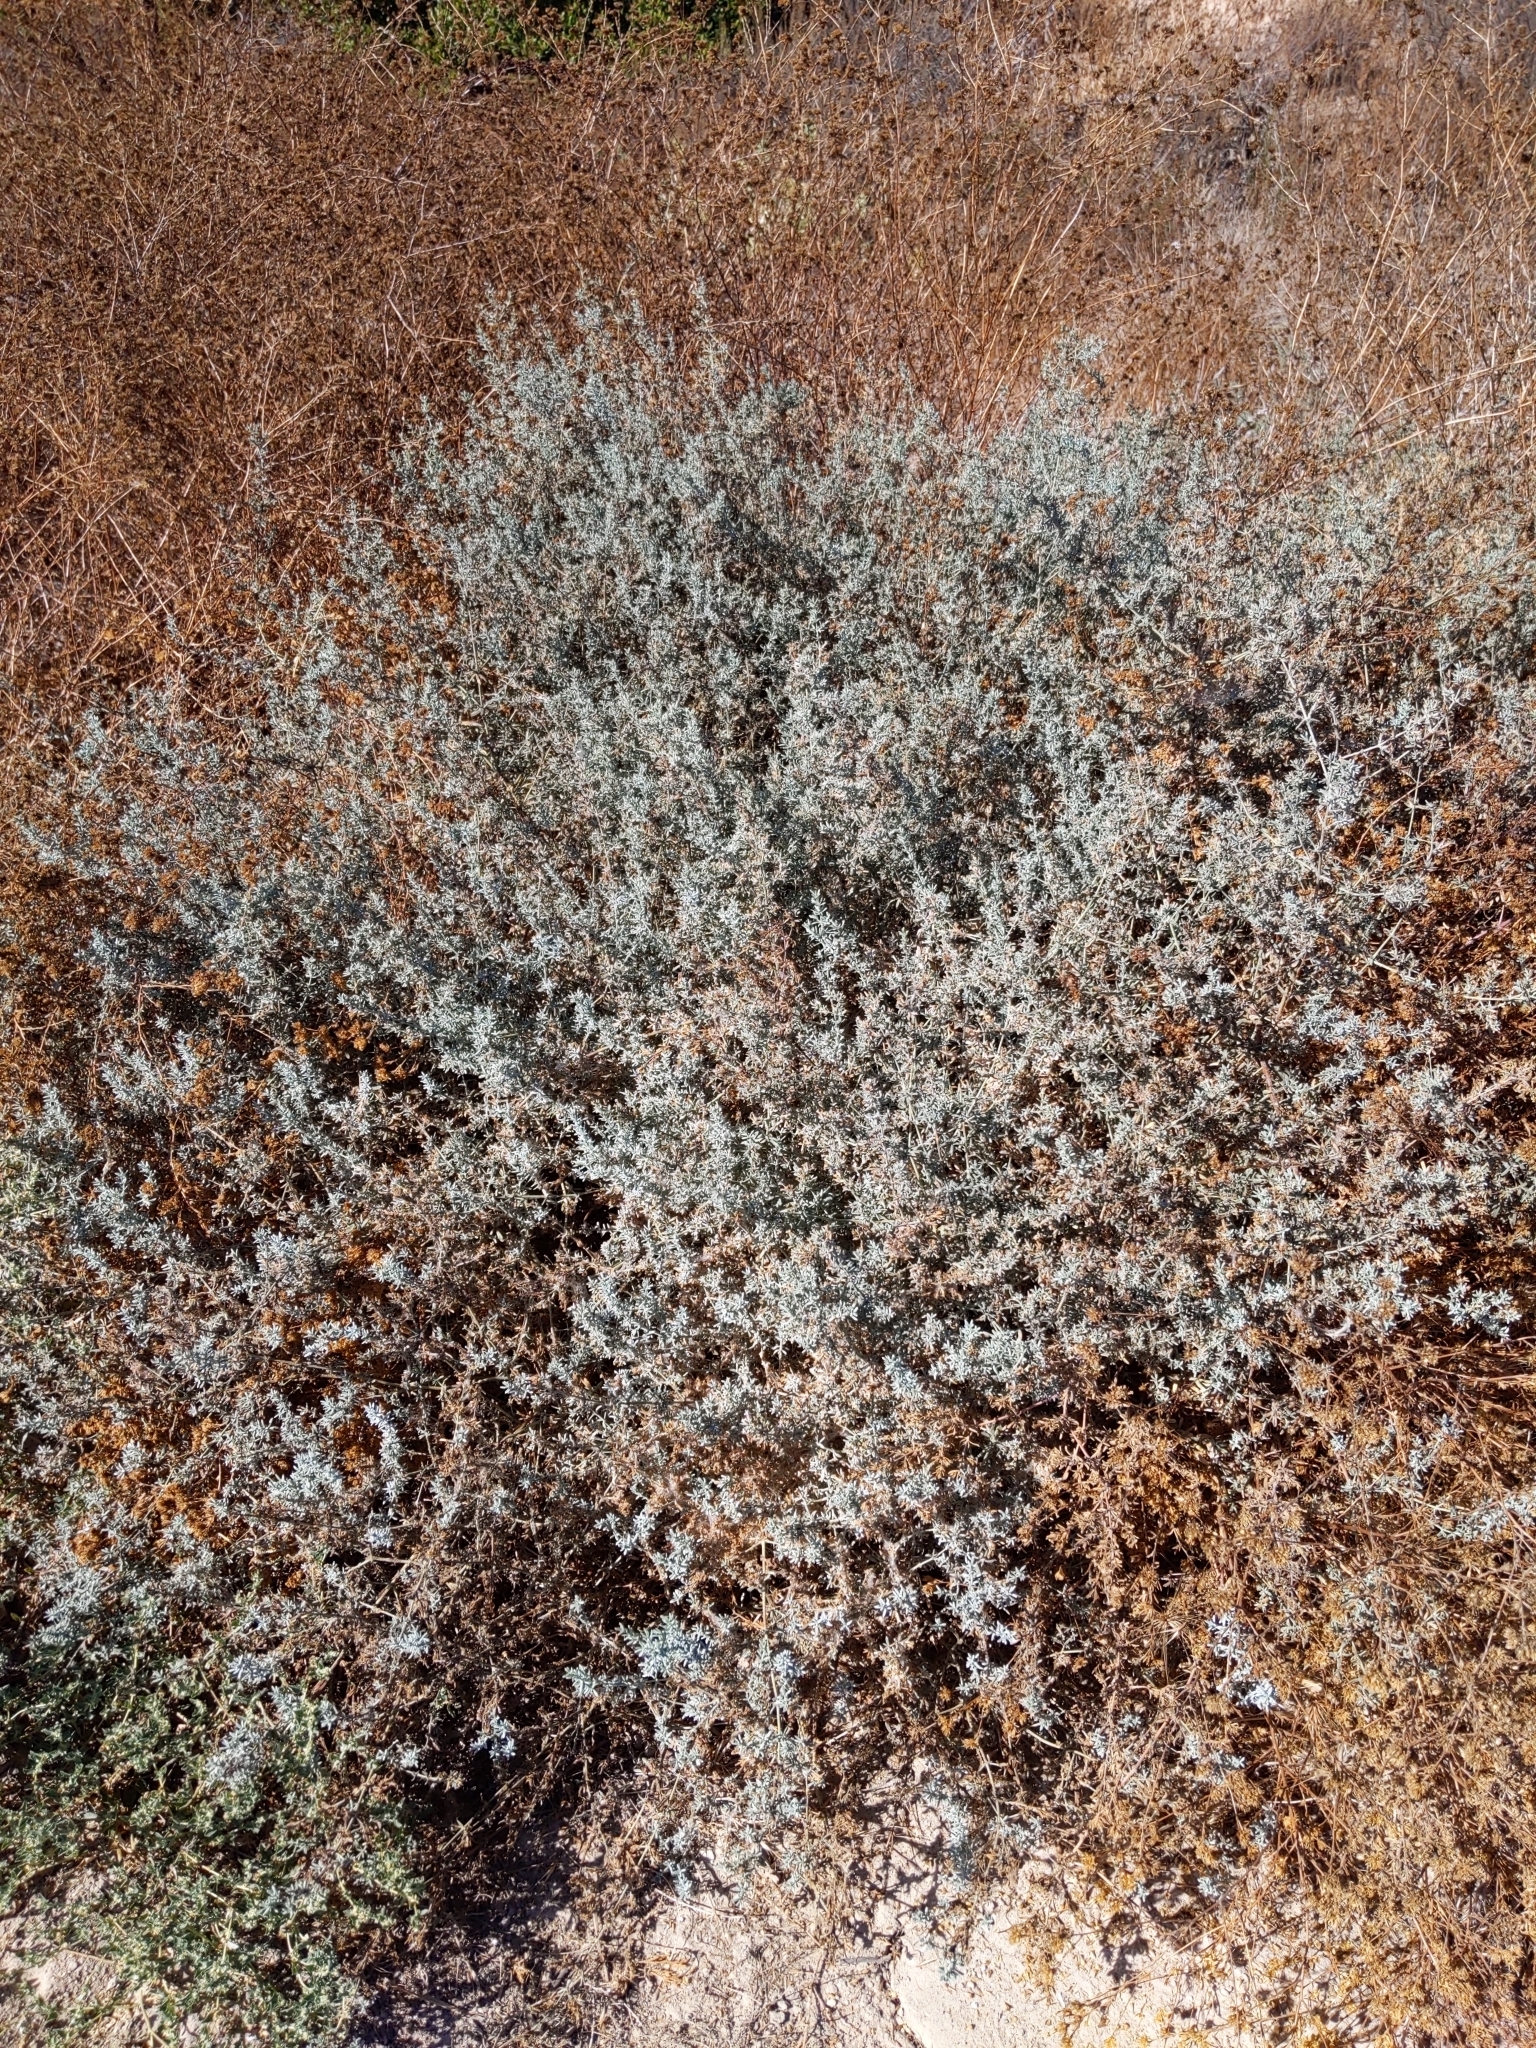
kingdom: Plantae
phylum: Tracheophyta
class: Magnoliopsida
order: Caryophyllales
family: Frankeniaceae
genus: Frankenia
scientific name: Frankenia salina
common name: Alkali seaheath
